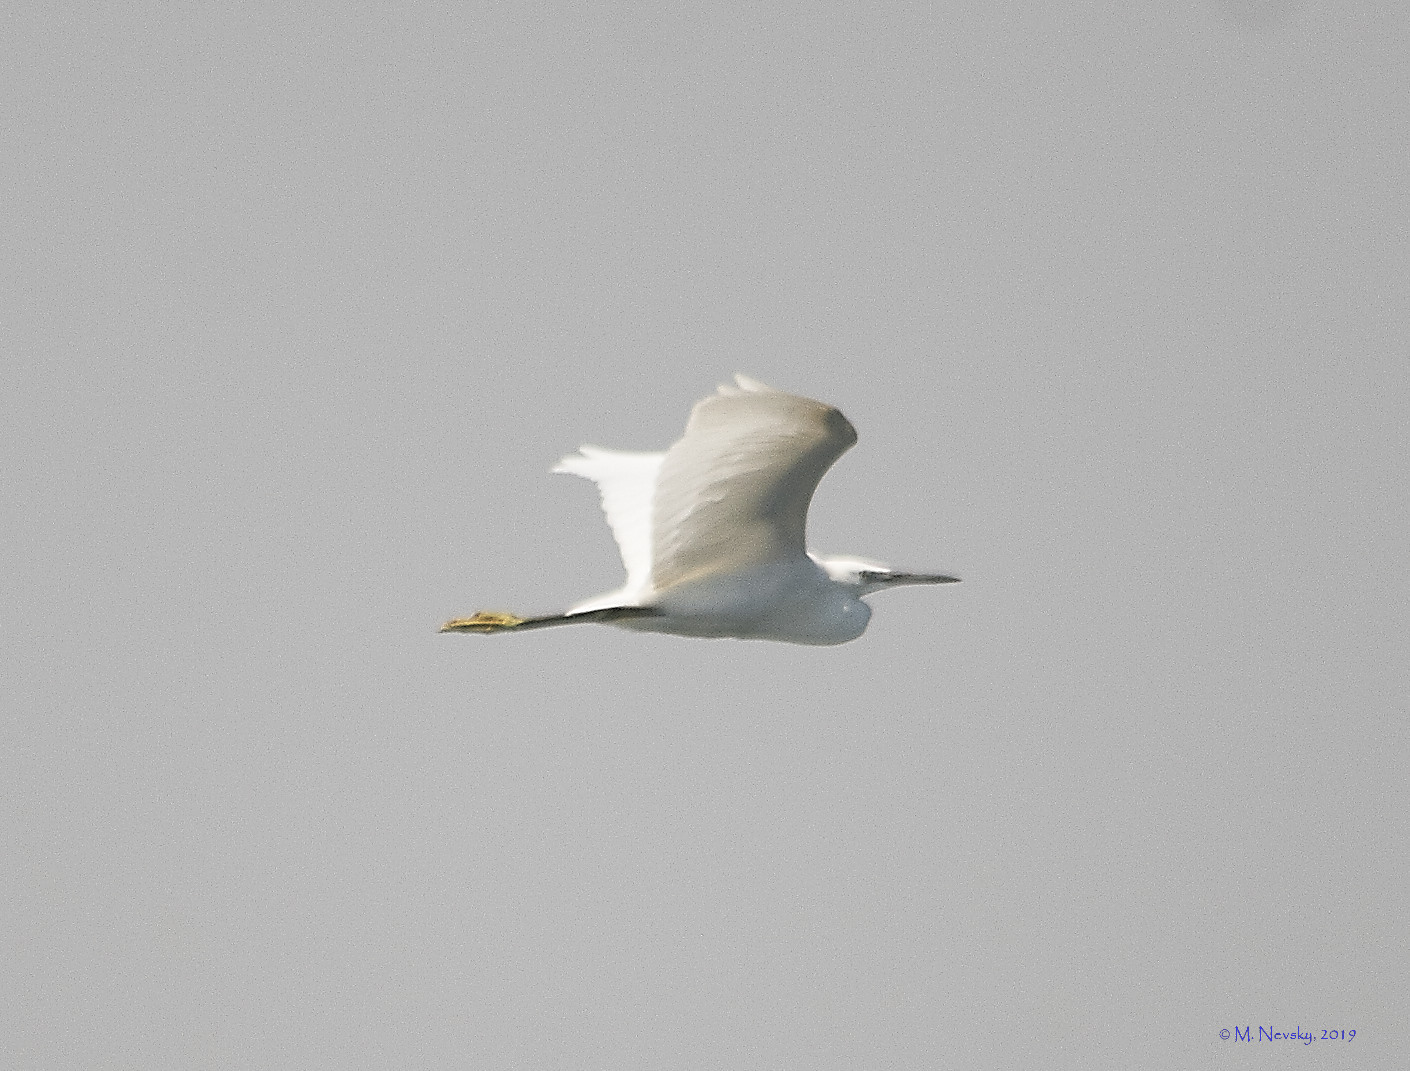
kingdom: Animalia
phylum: Chordata
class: Aves
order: Pelecaniformes
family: Ardeidae
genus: Egretta
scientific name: Egretta garzetta
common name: Little egret
